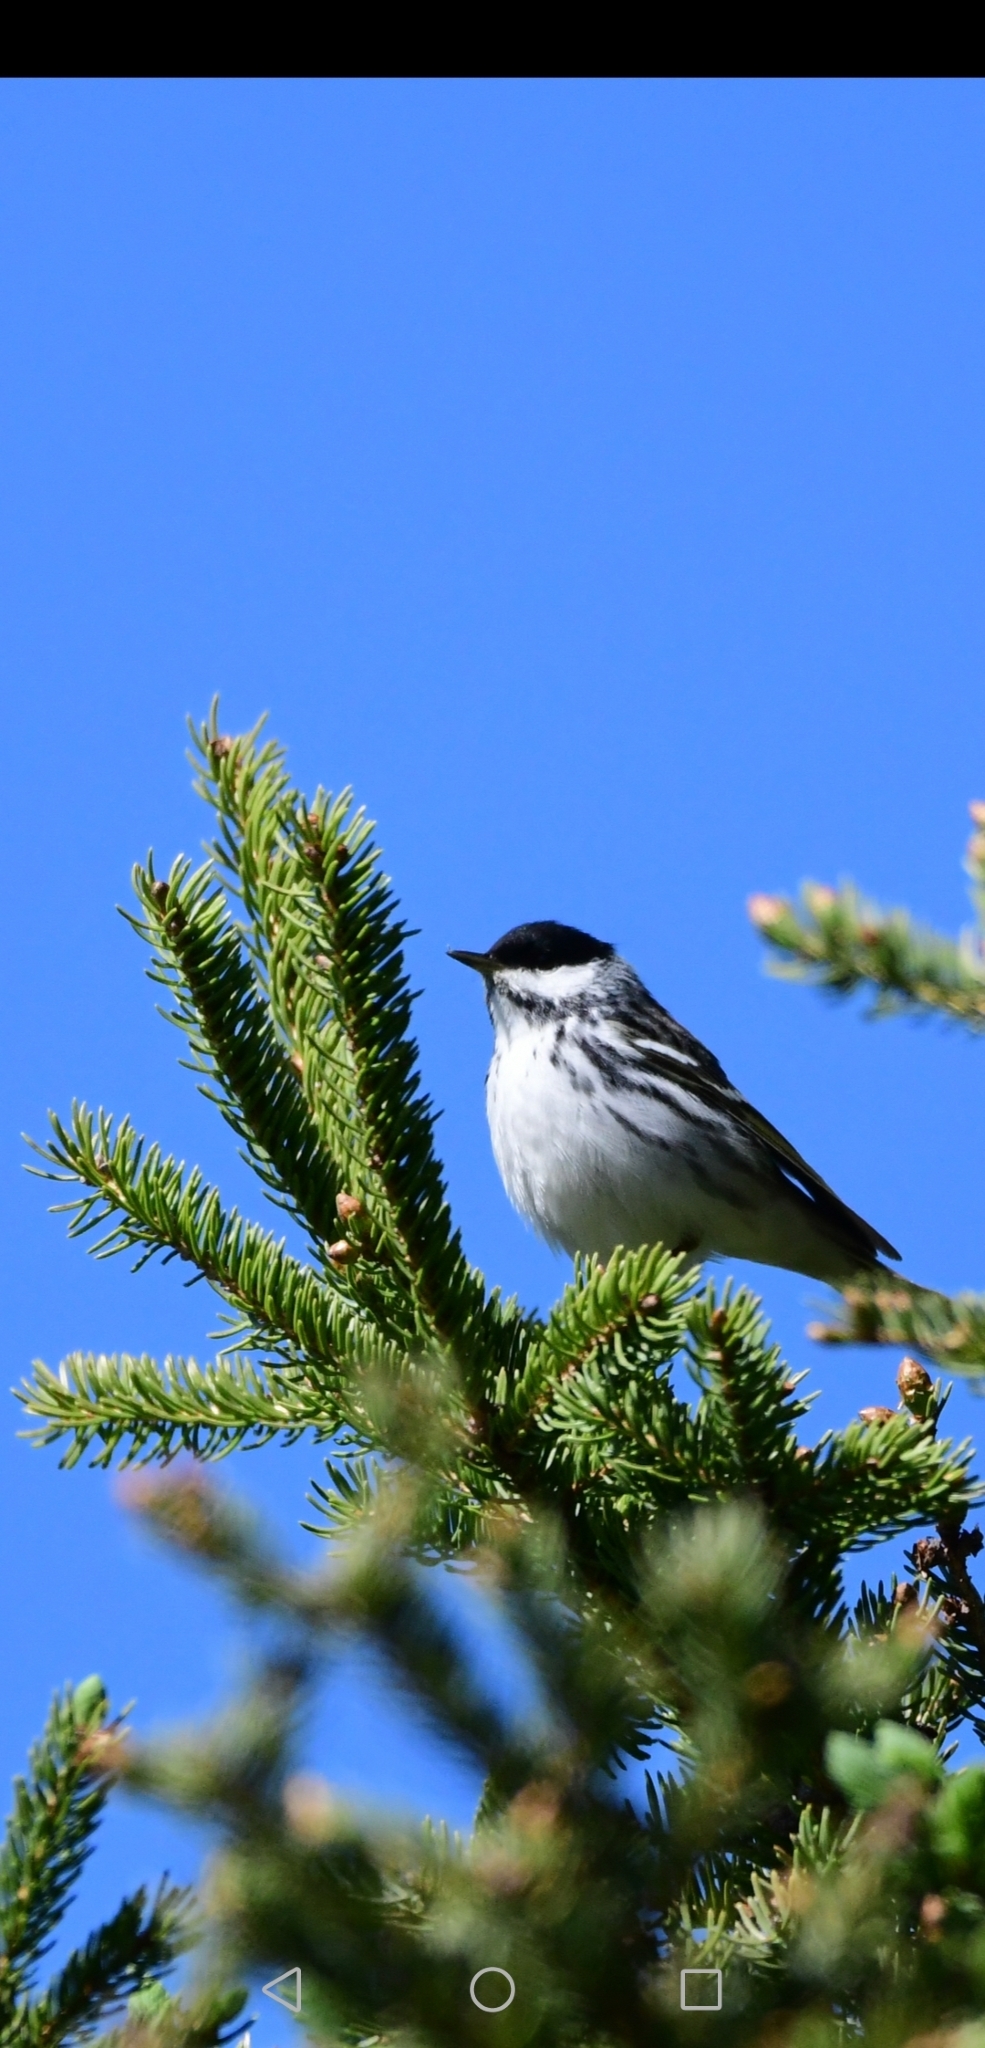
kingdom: Animalia
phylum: Chordata
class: Aves
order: Passeriformes
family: Parulidae
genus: Setophaga
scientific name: Setophaga striata
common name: Blackpoll warbler
